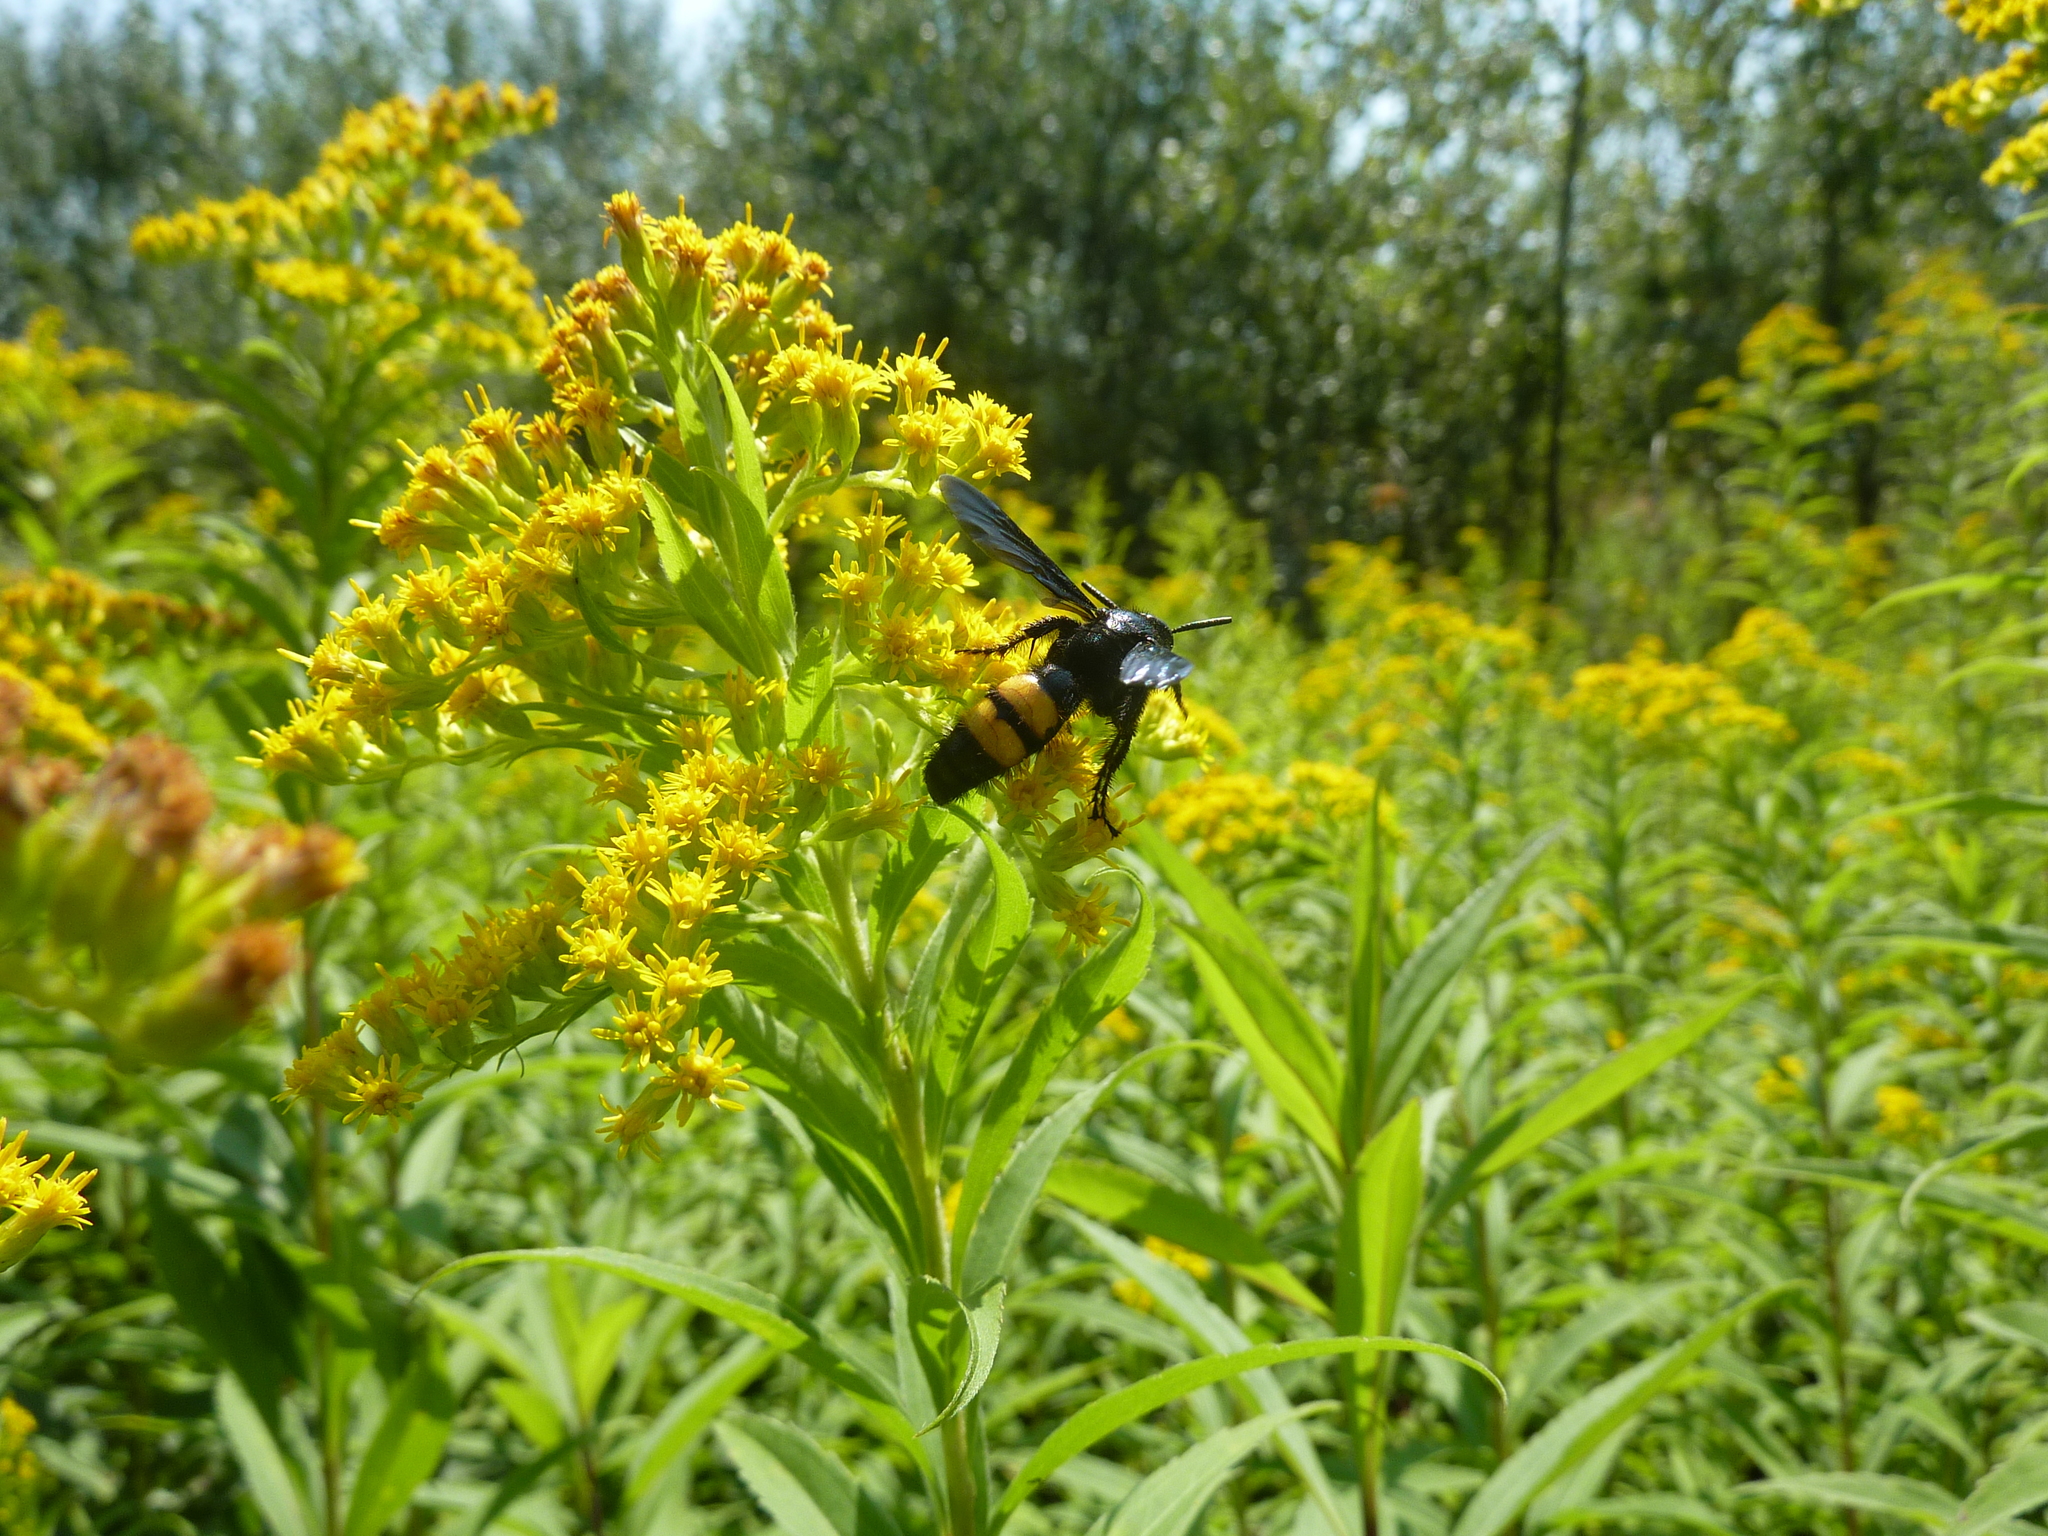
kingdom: Animalia
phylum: Arthropoda
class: Insecta
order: Hymenoptera
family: Scoliidae
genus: Scolia
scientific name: Scolia hirta
